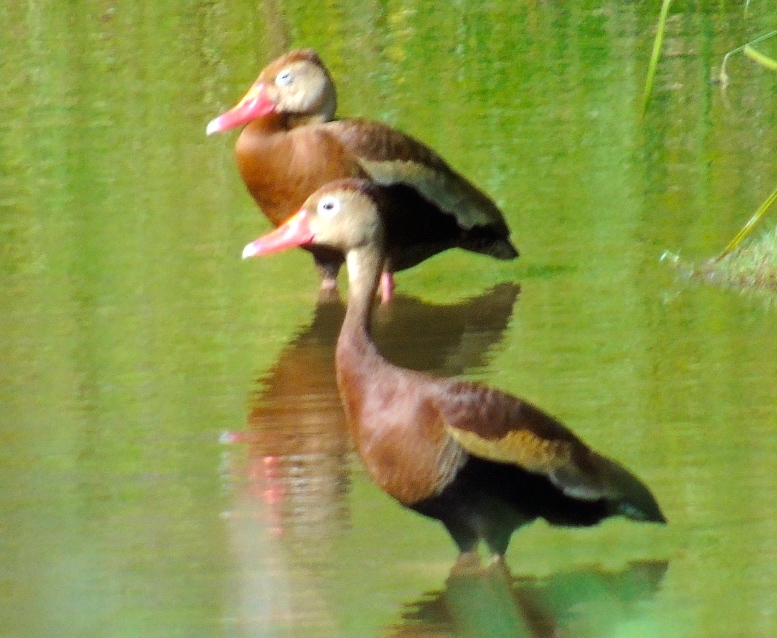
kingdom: Animalia
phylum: Chordata
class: Aves
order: Anseriformes
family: Anatidae
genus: Dendrocygna
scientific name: Dendrocygna autumnalis
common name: Black-bellied whistling duck
